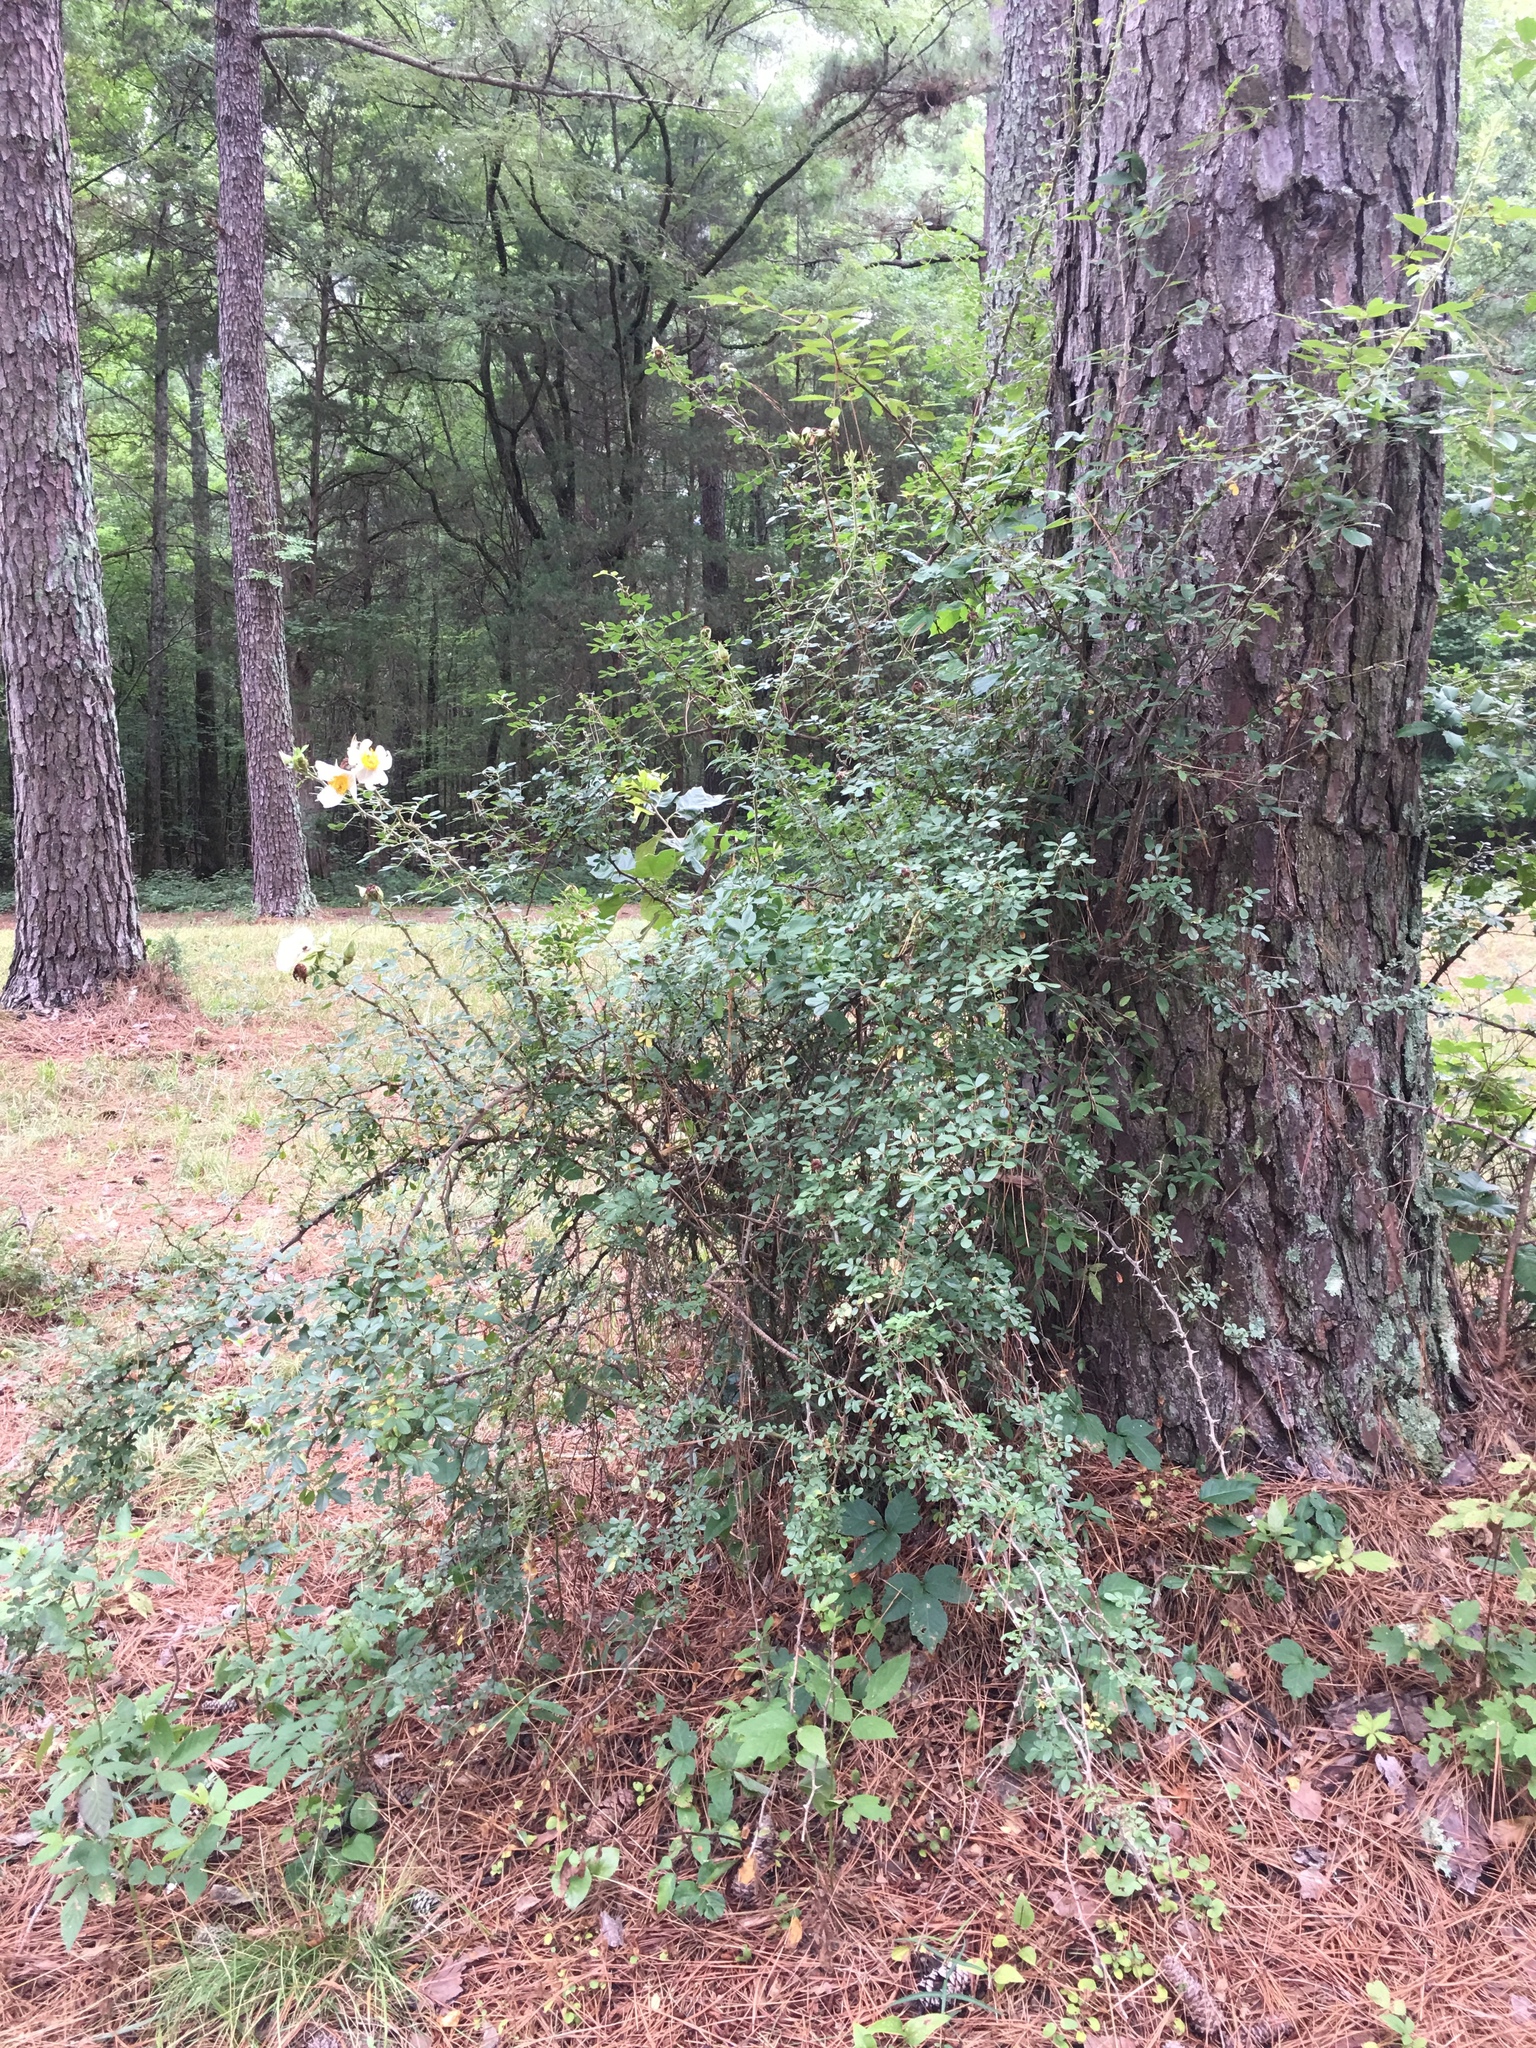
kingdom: Plantae
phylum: Tracheophyta
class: Magnoliopsida
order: Rosales
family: Rosaceae
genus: Rosa
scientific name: Rosa bracteata
